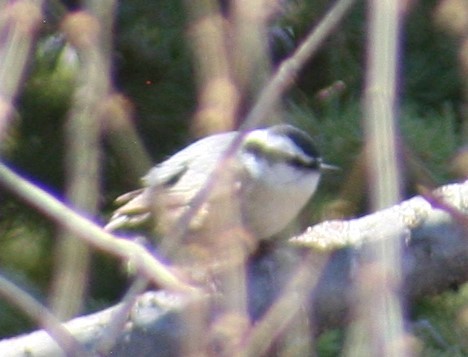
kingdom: Animalia
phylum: Chordata
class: Aves
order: Passeriformes
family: Sittidae
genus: Sitta
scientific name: Sitta canadensis
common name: Red-breasted nuthatch
